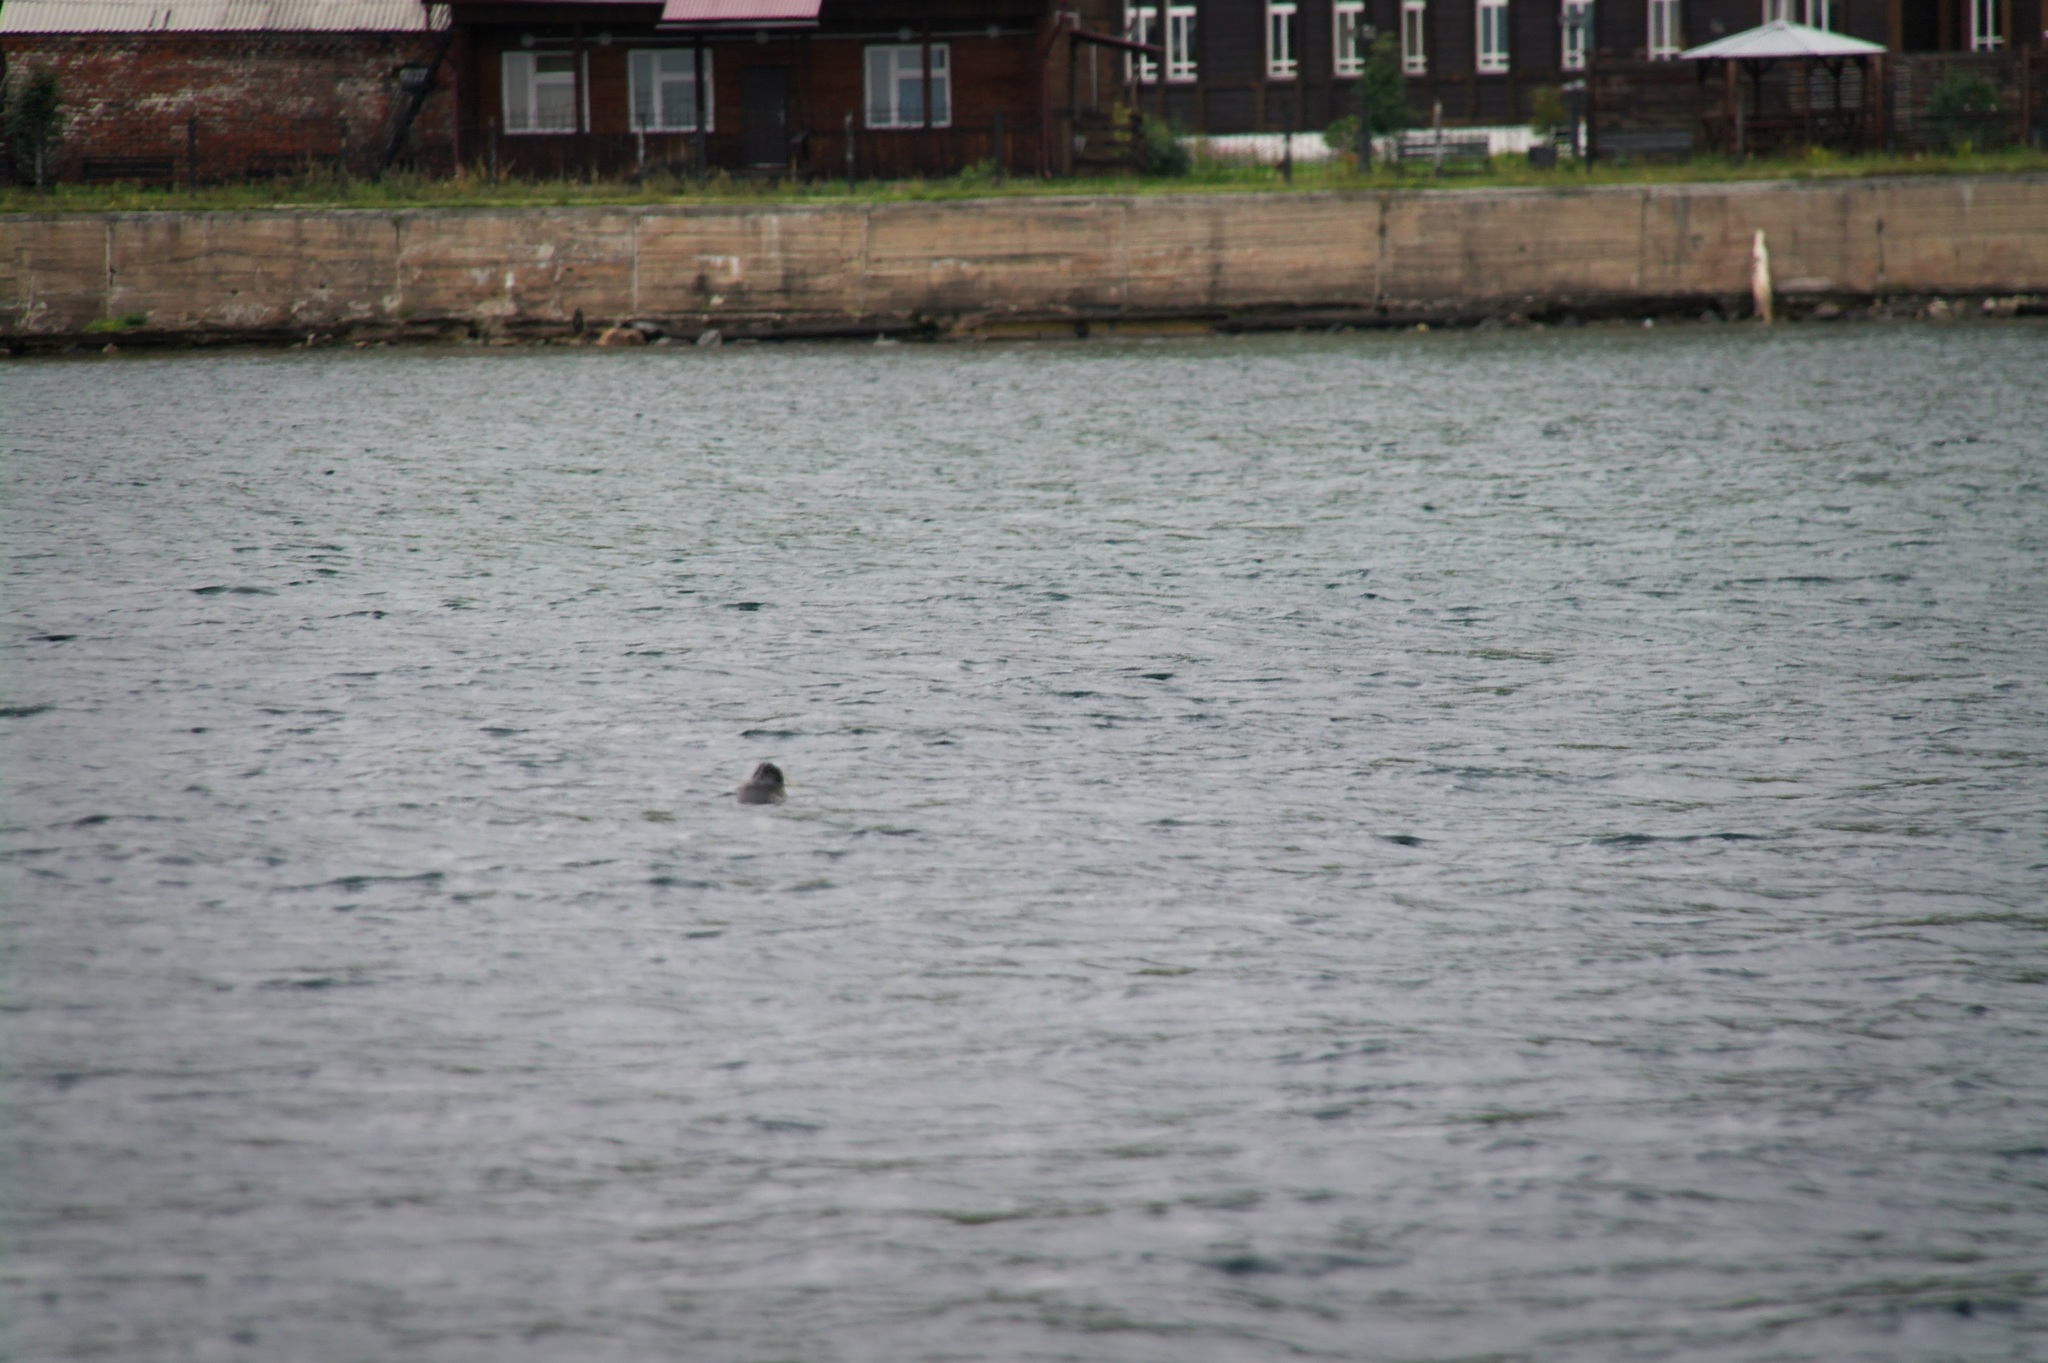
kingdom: Animalia
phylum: Chordata
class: Mammalia
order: Carnivora
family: Phocidae
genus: Pusa
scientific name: Pusa sibirica
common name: Baikal seal
